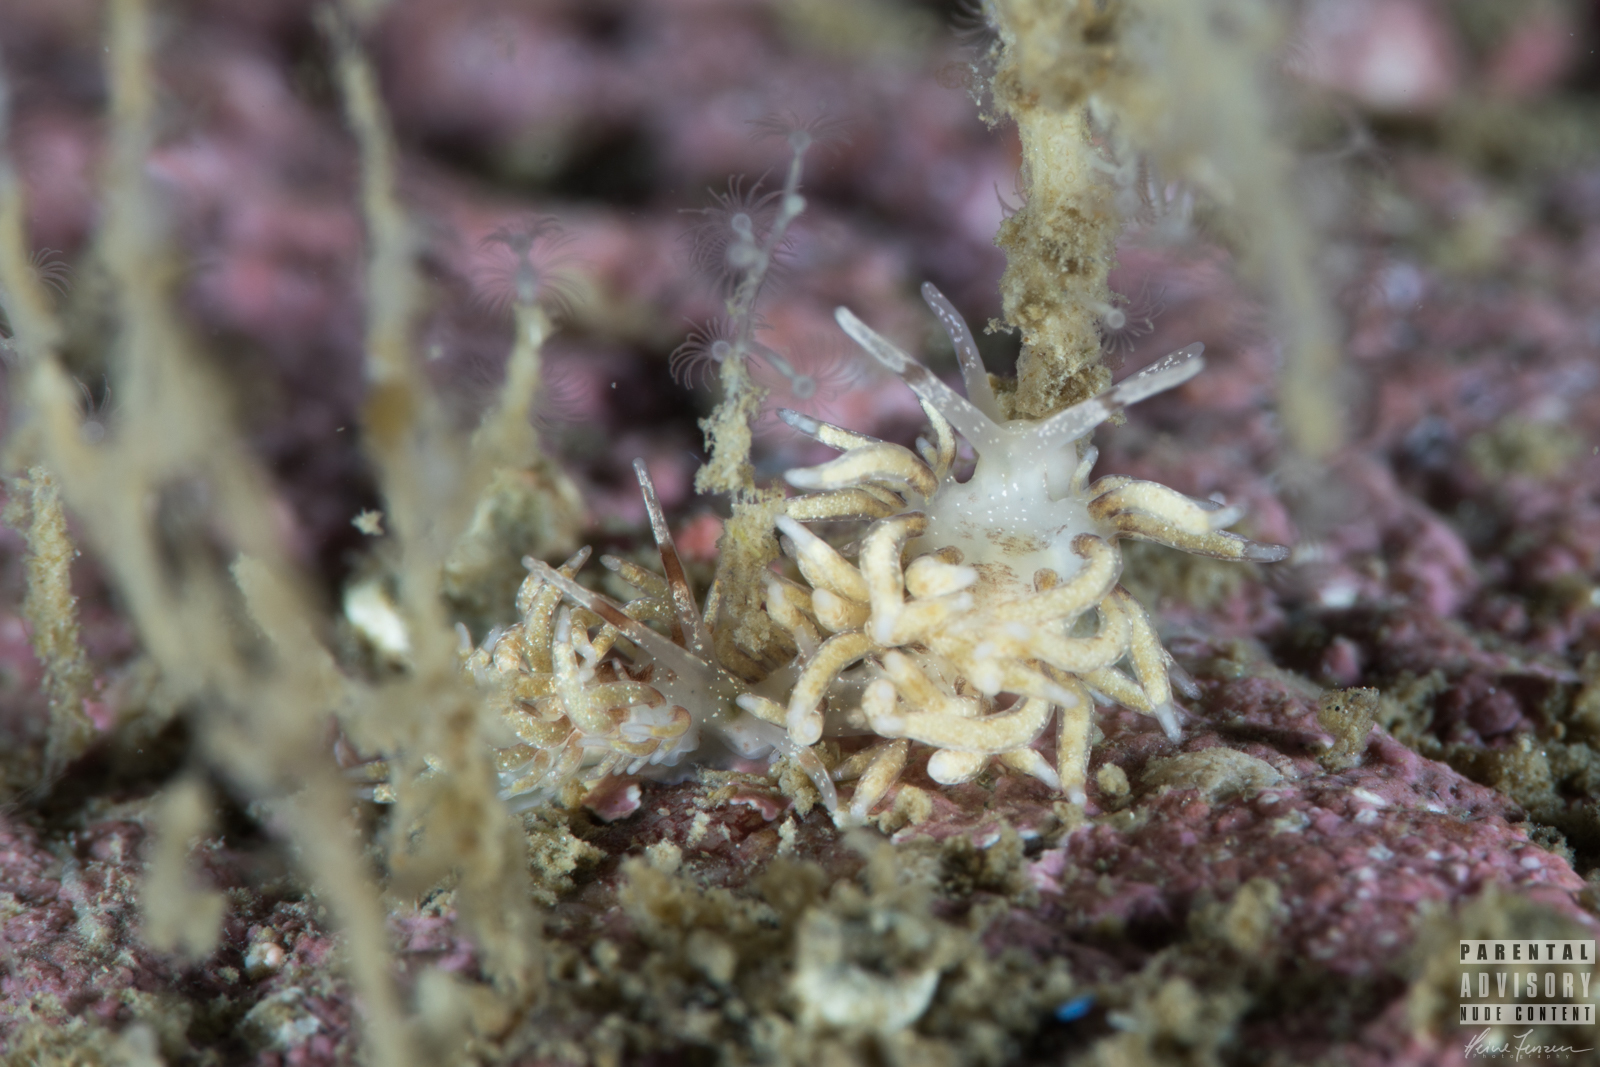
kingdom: Animalia
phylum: Mollusca
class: Gastropoda
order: Nudibranchia
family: Trinchesiidae
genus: Rubramoena
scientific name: Rubramoena amoena
